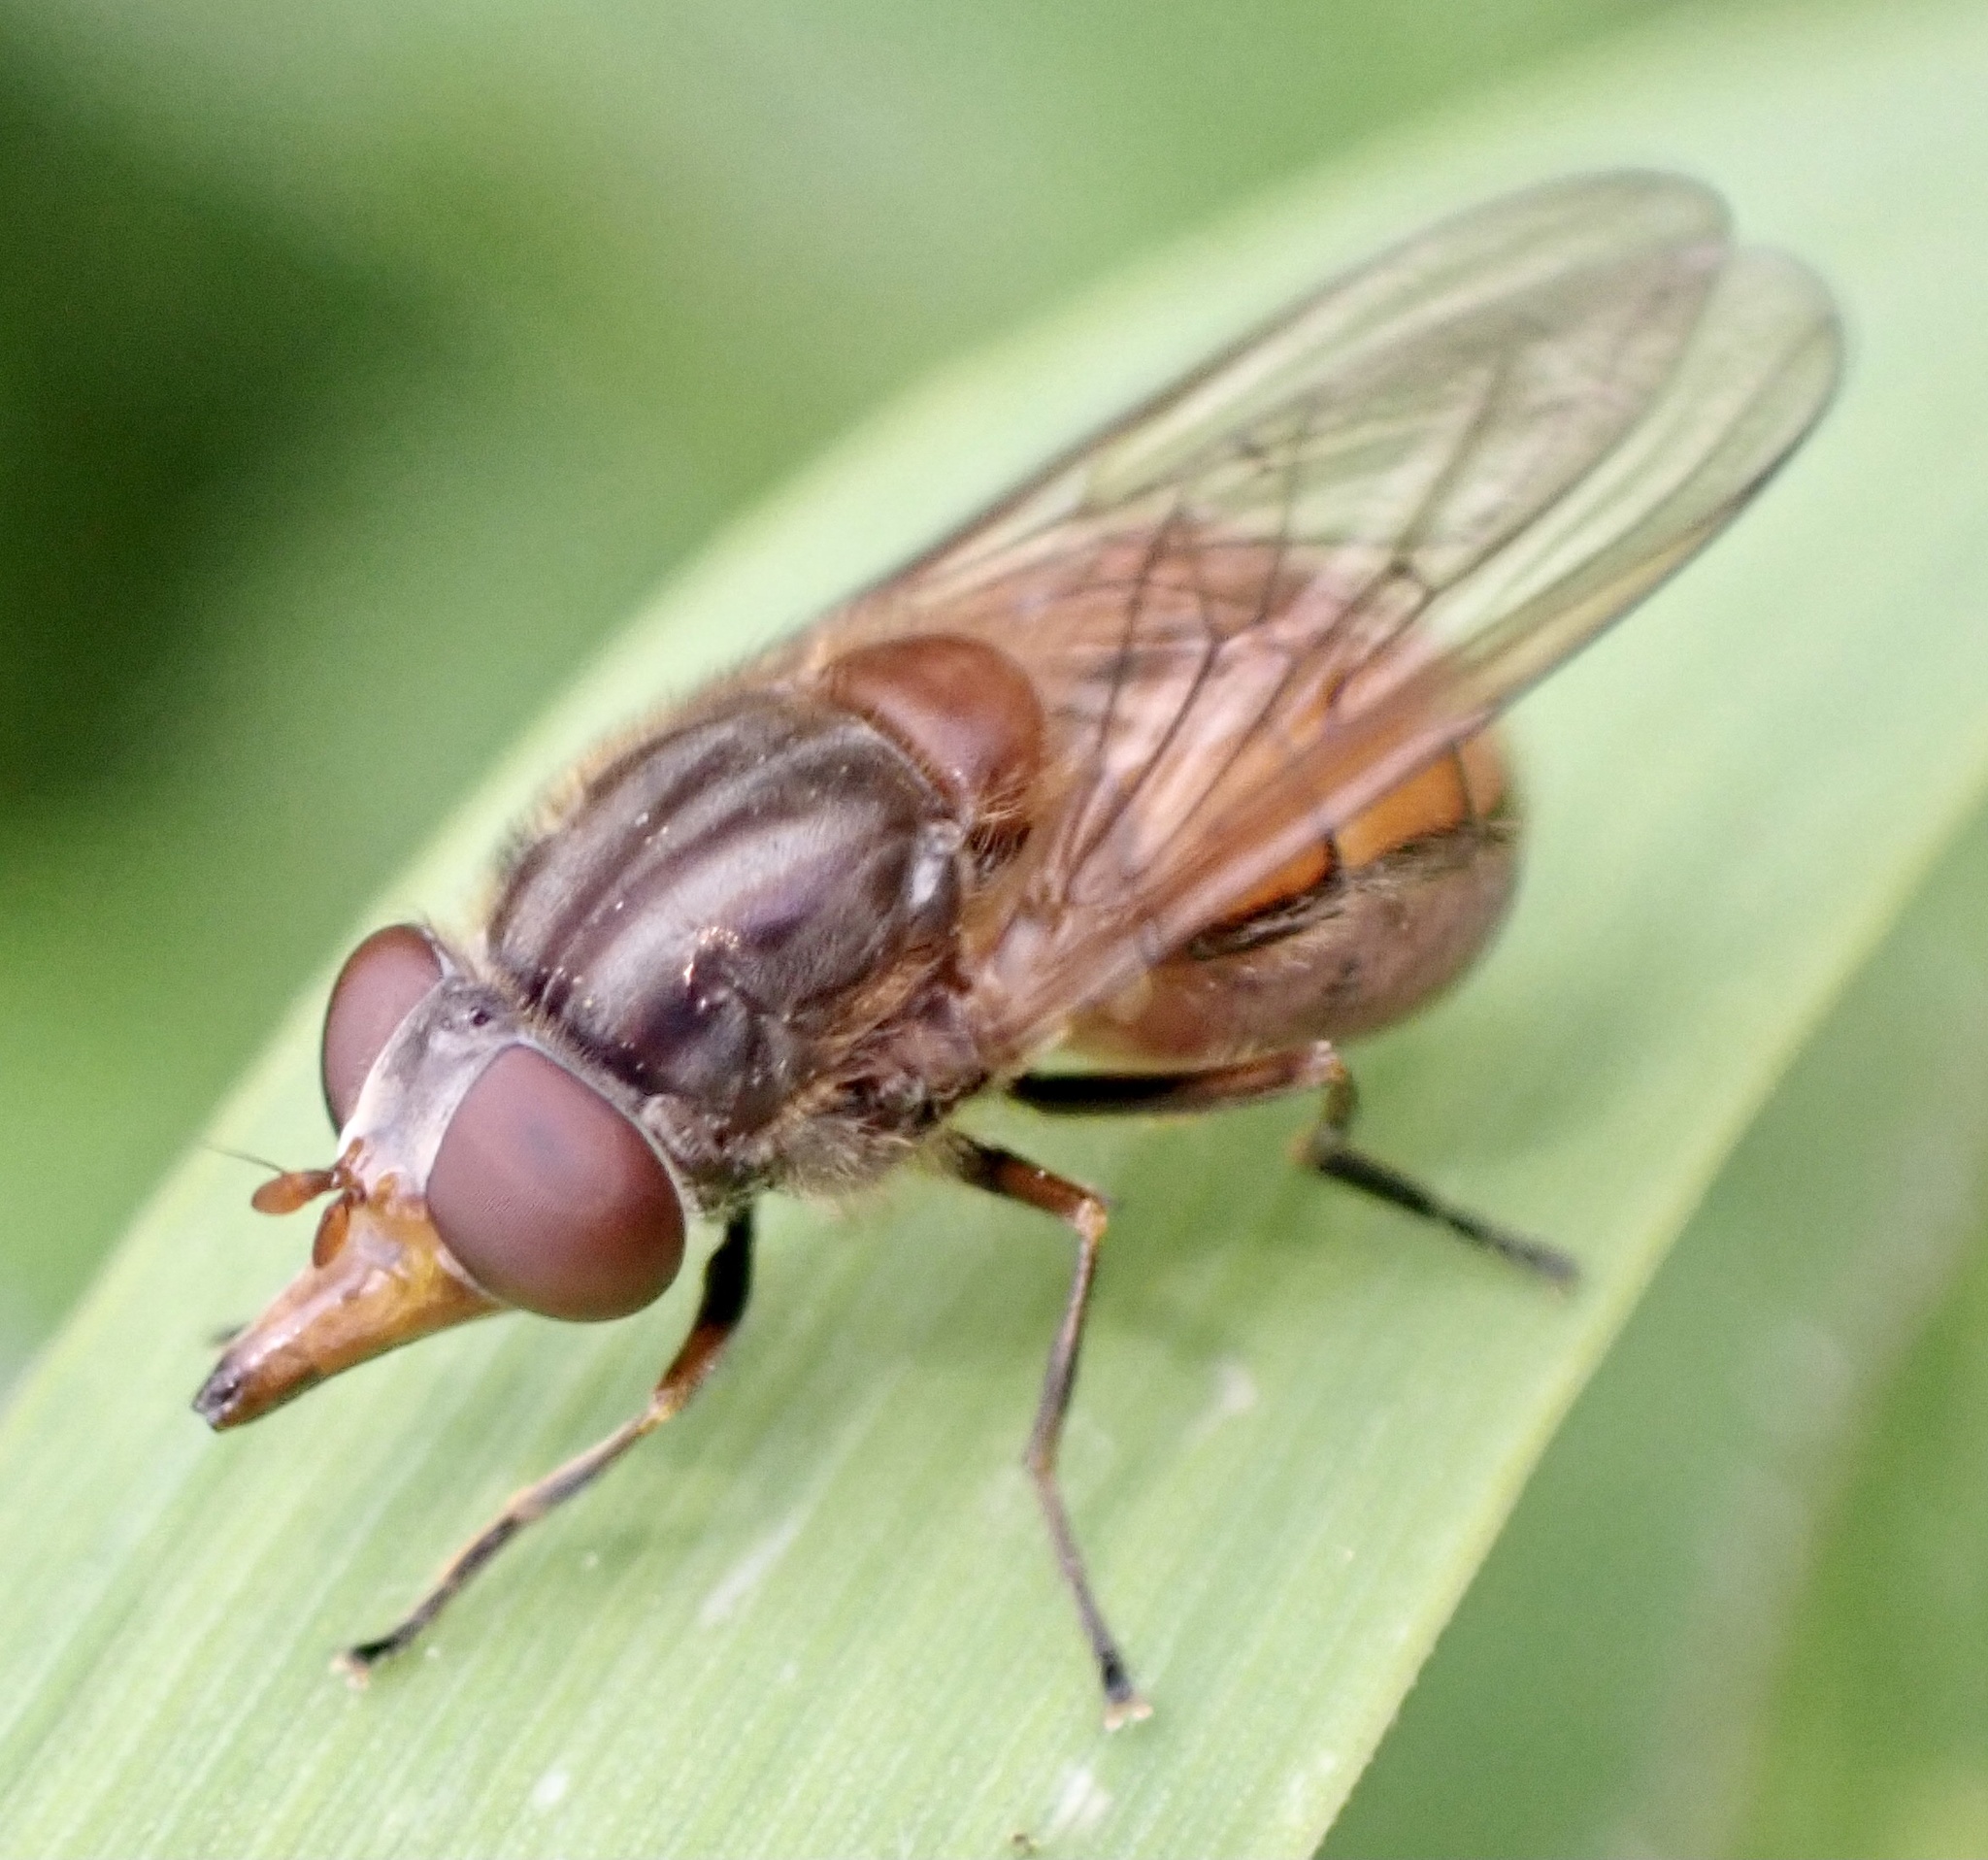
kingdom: Animalia
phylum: Arthropoda
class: Insecta
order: Diptera
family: Syrphidae
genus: Rhingia
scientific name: Rhingia campestris
